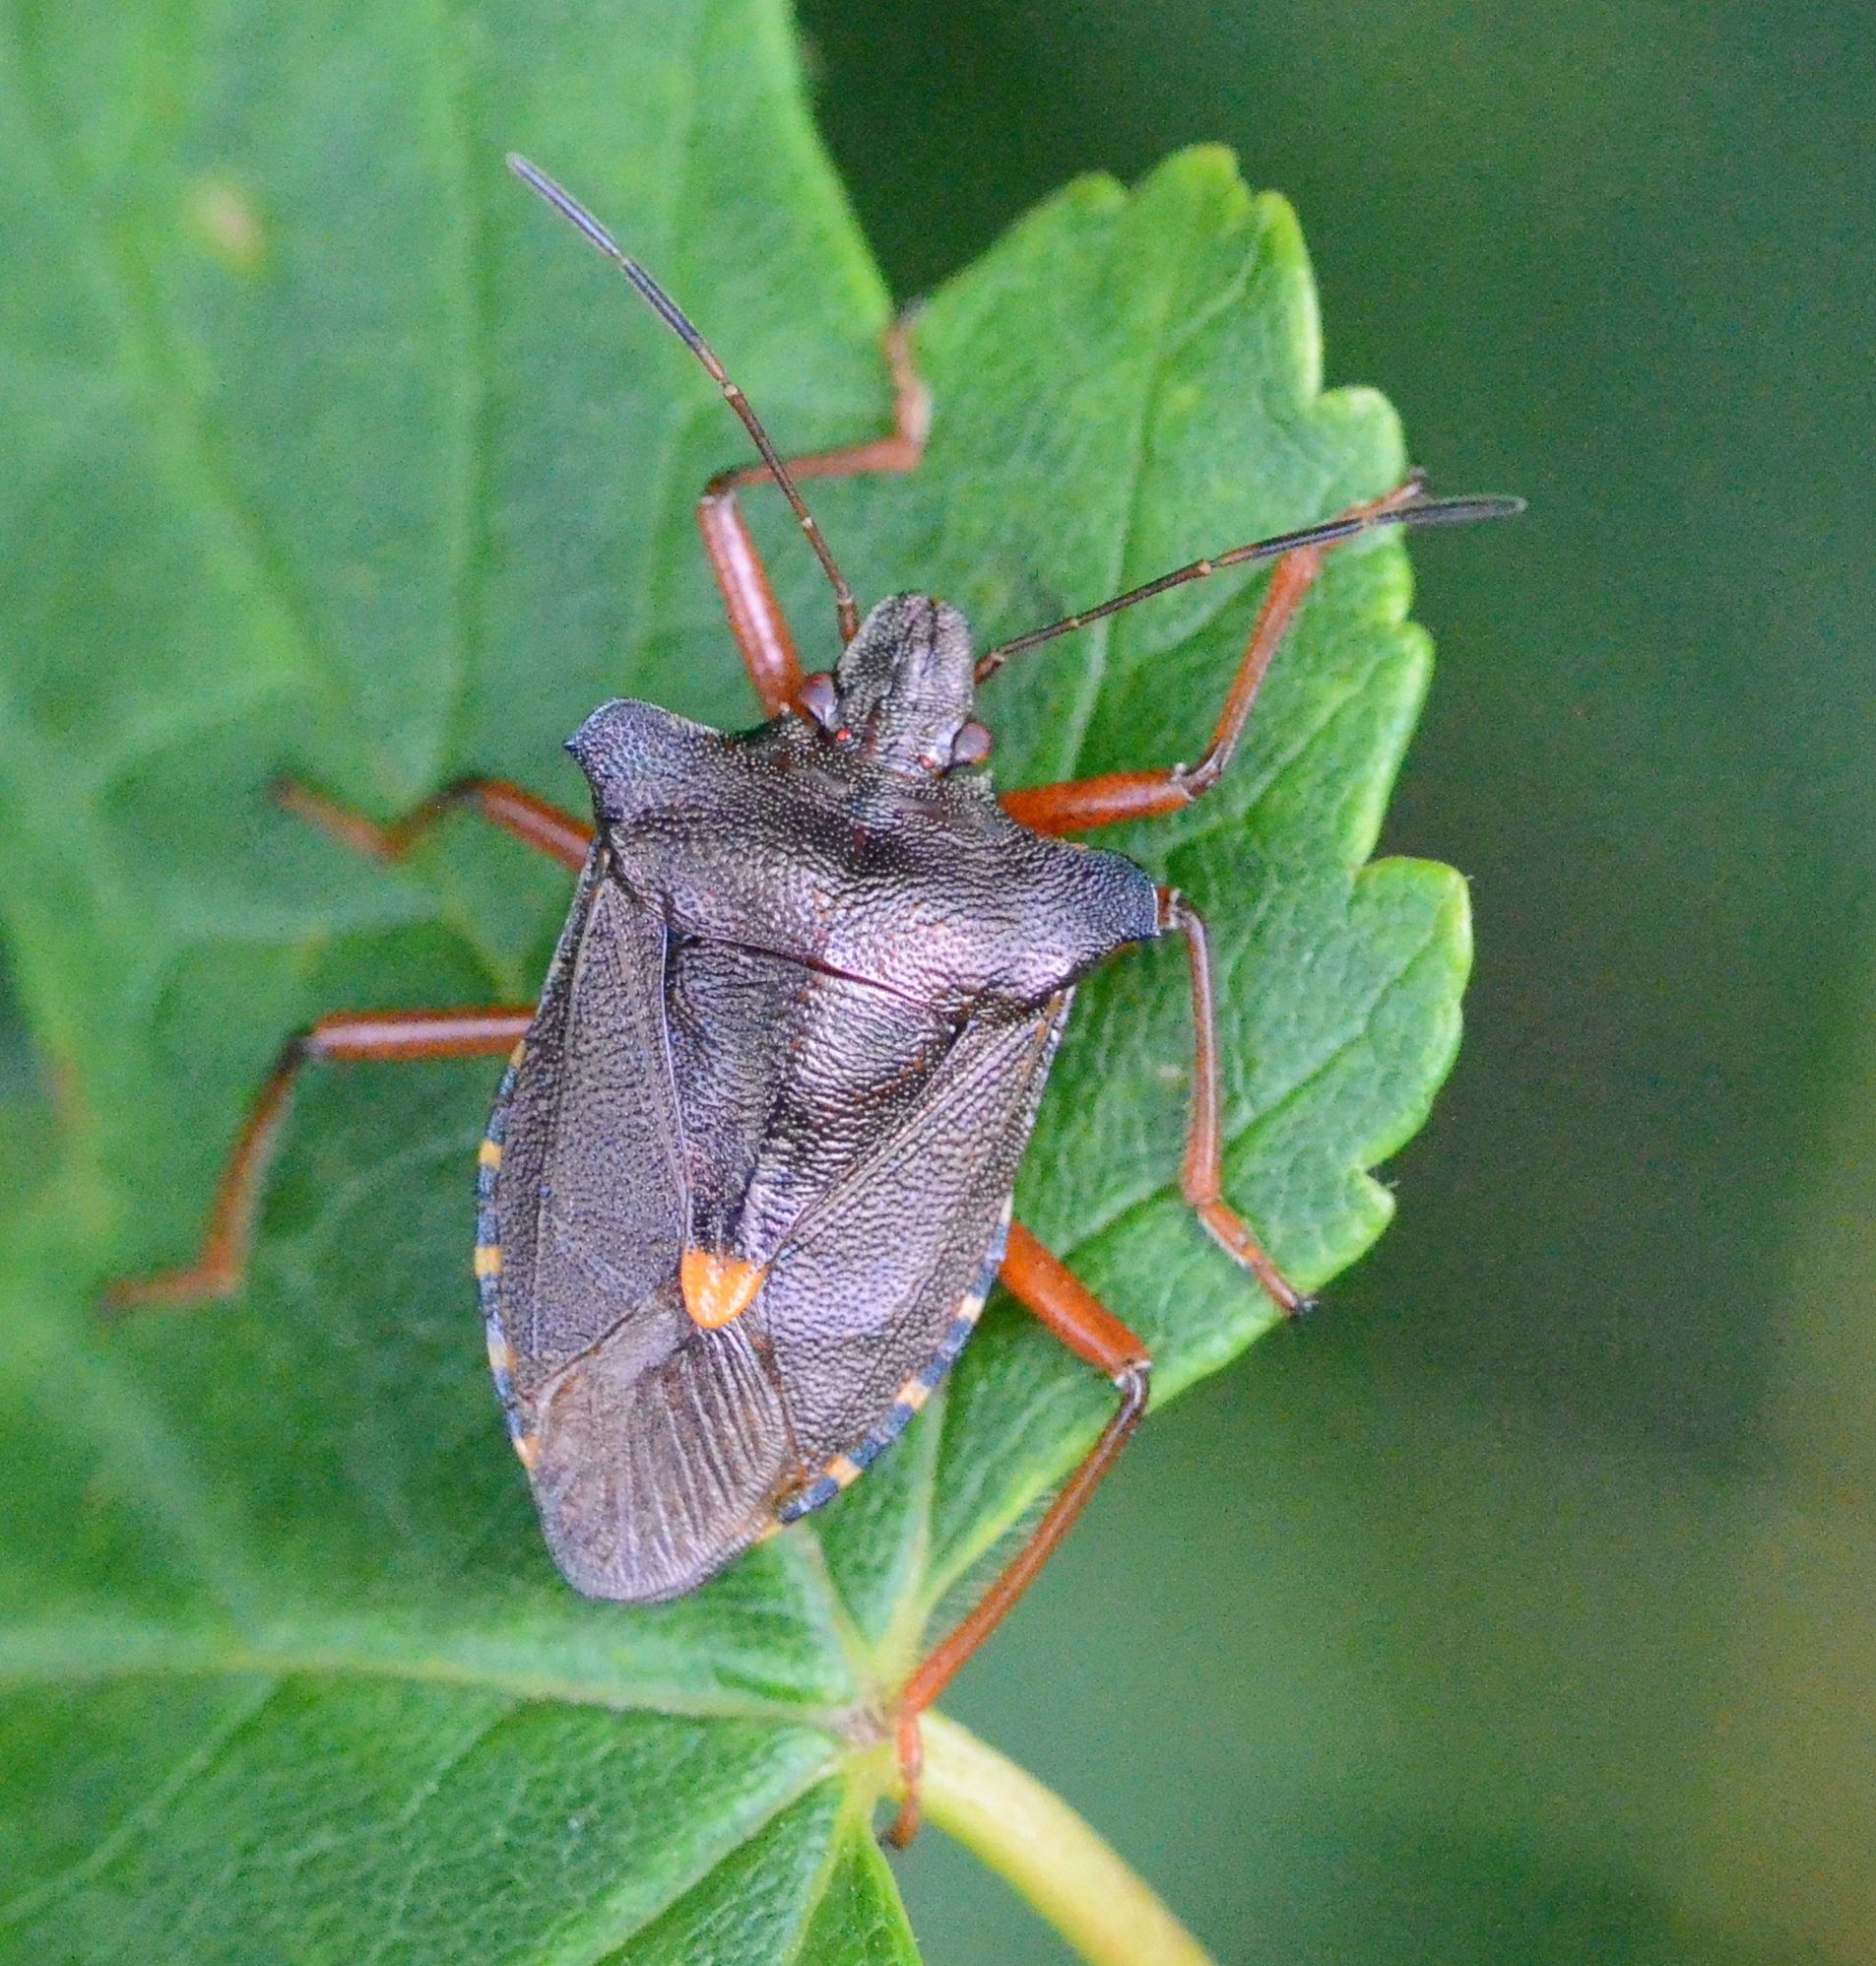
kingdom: Animalia
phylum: Arthropoda
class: Insecta
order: Hemiptera
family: Pentatomidae
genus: Pentatoma
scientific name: Pentatoma rufipes
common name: Forest bug
